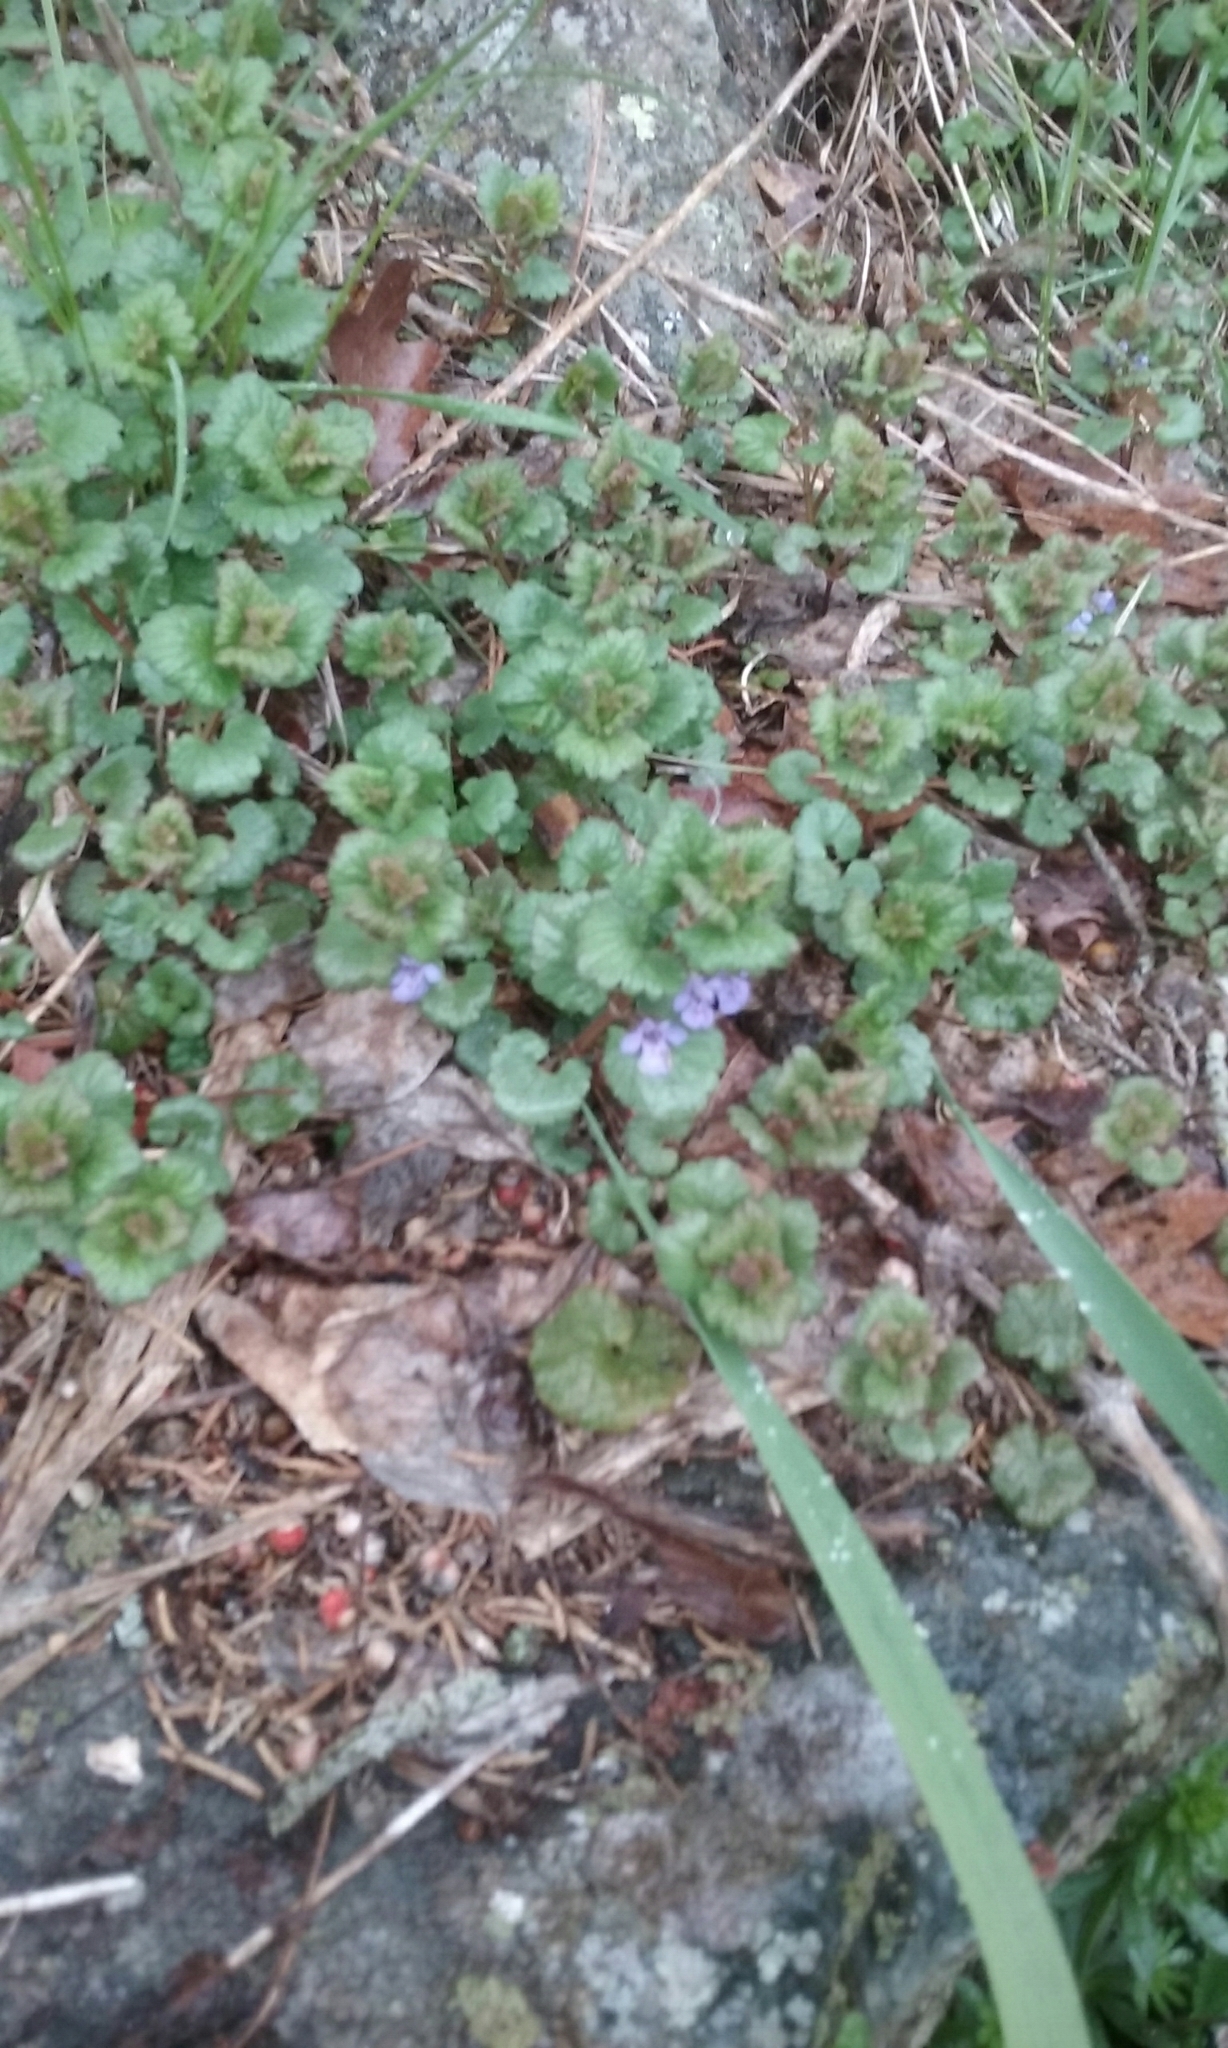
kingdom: Plantae
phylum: Tracheophyta
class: Magnoliopsida
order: Lamiales
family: Lamiaceae
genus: Glechoma
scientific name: Glechoma hederacea
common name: Ground ivy
